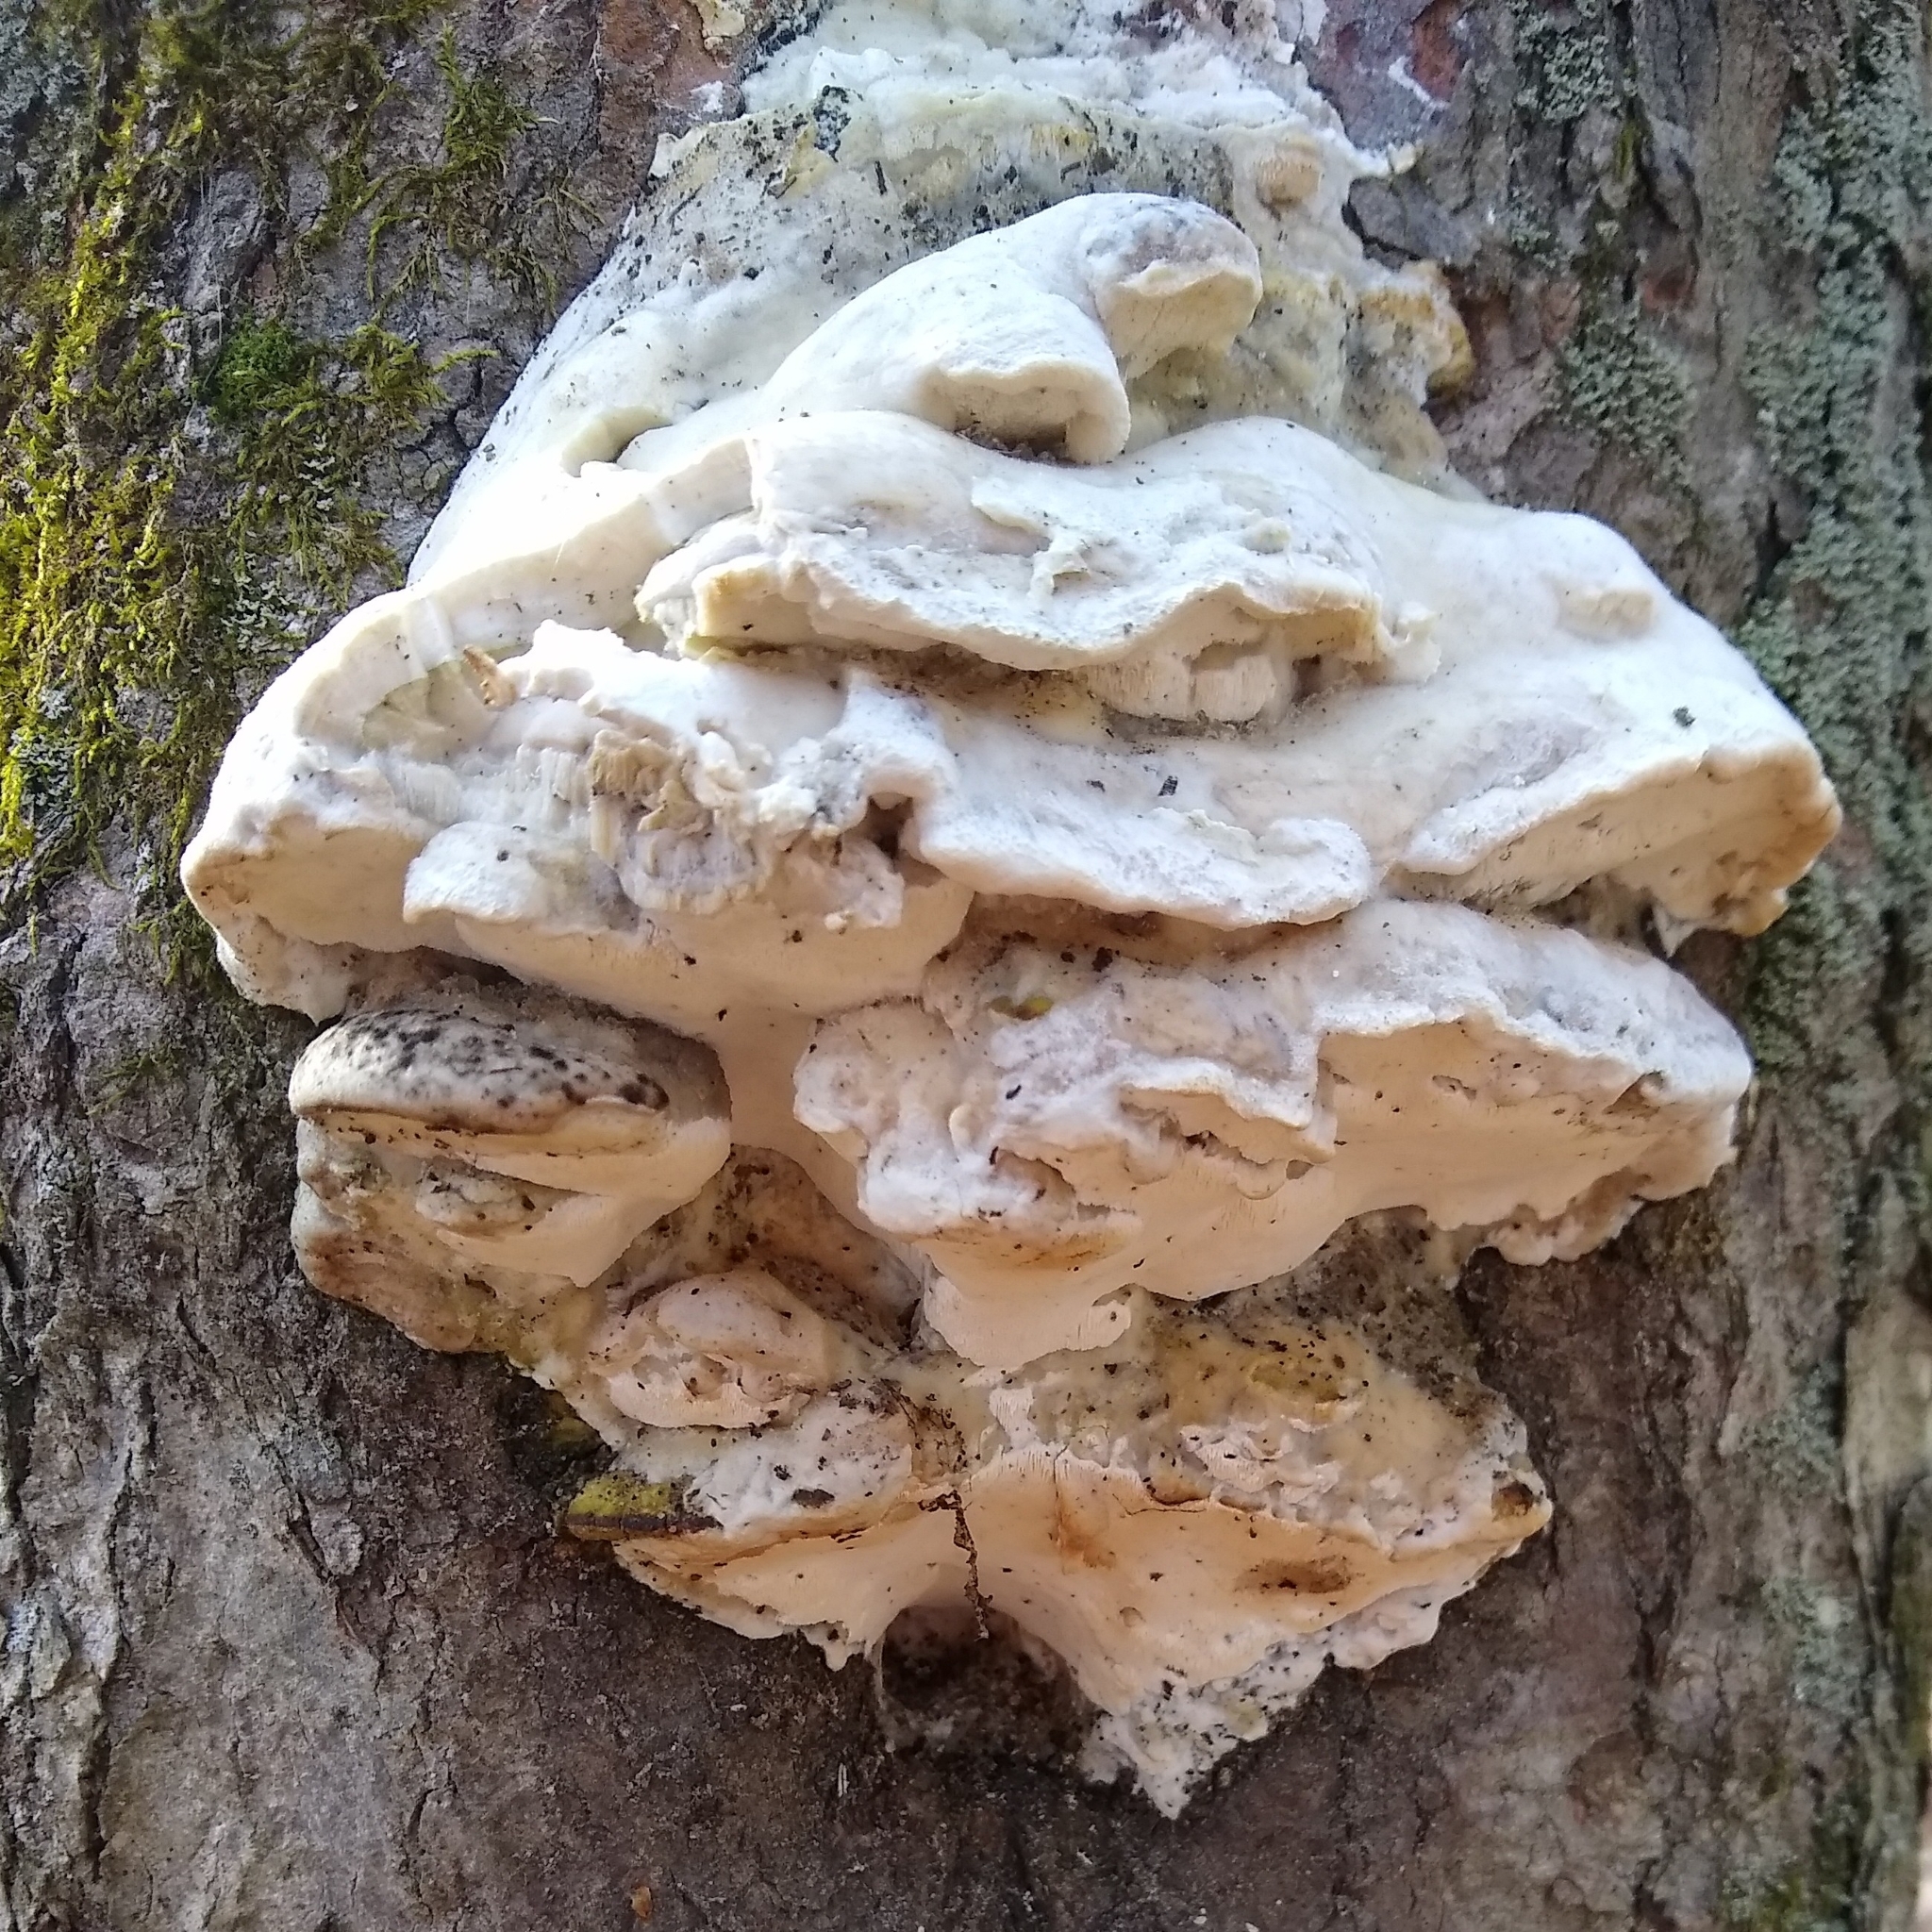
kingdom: Fungi
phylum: Basidiomycota
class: Agaricomycetes
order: Polyporales
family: Meruliaceae
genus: Climacodon
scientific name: Climacodon septentrionalis
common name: Northern tooth
